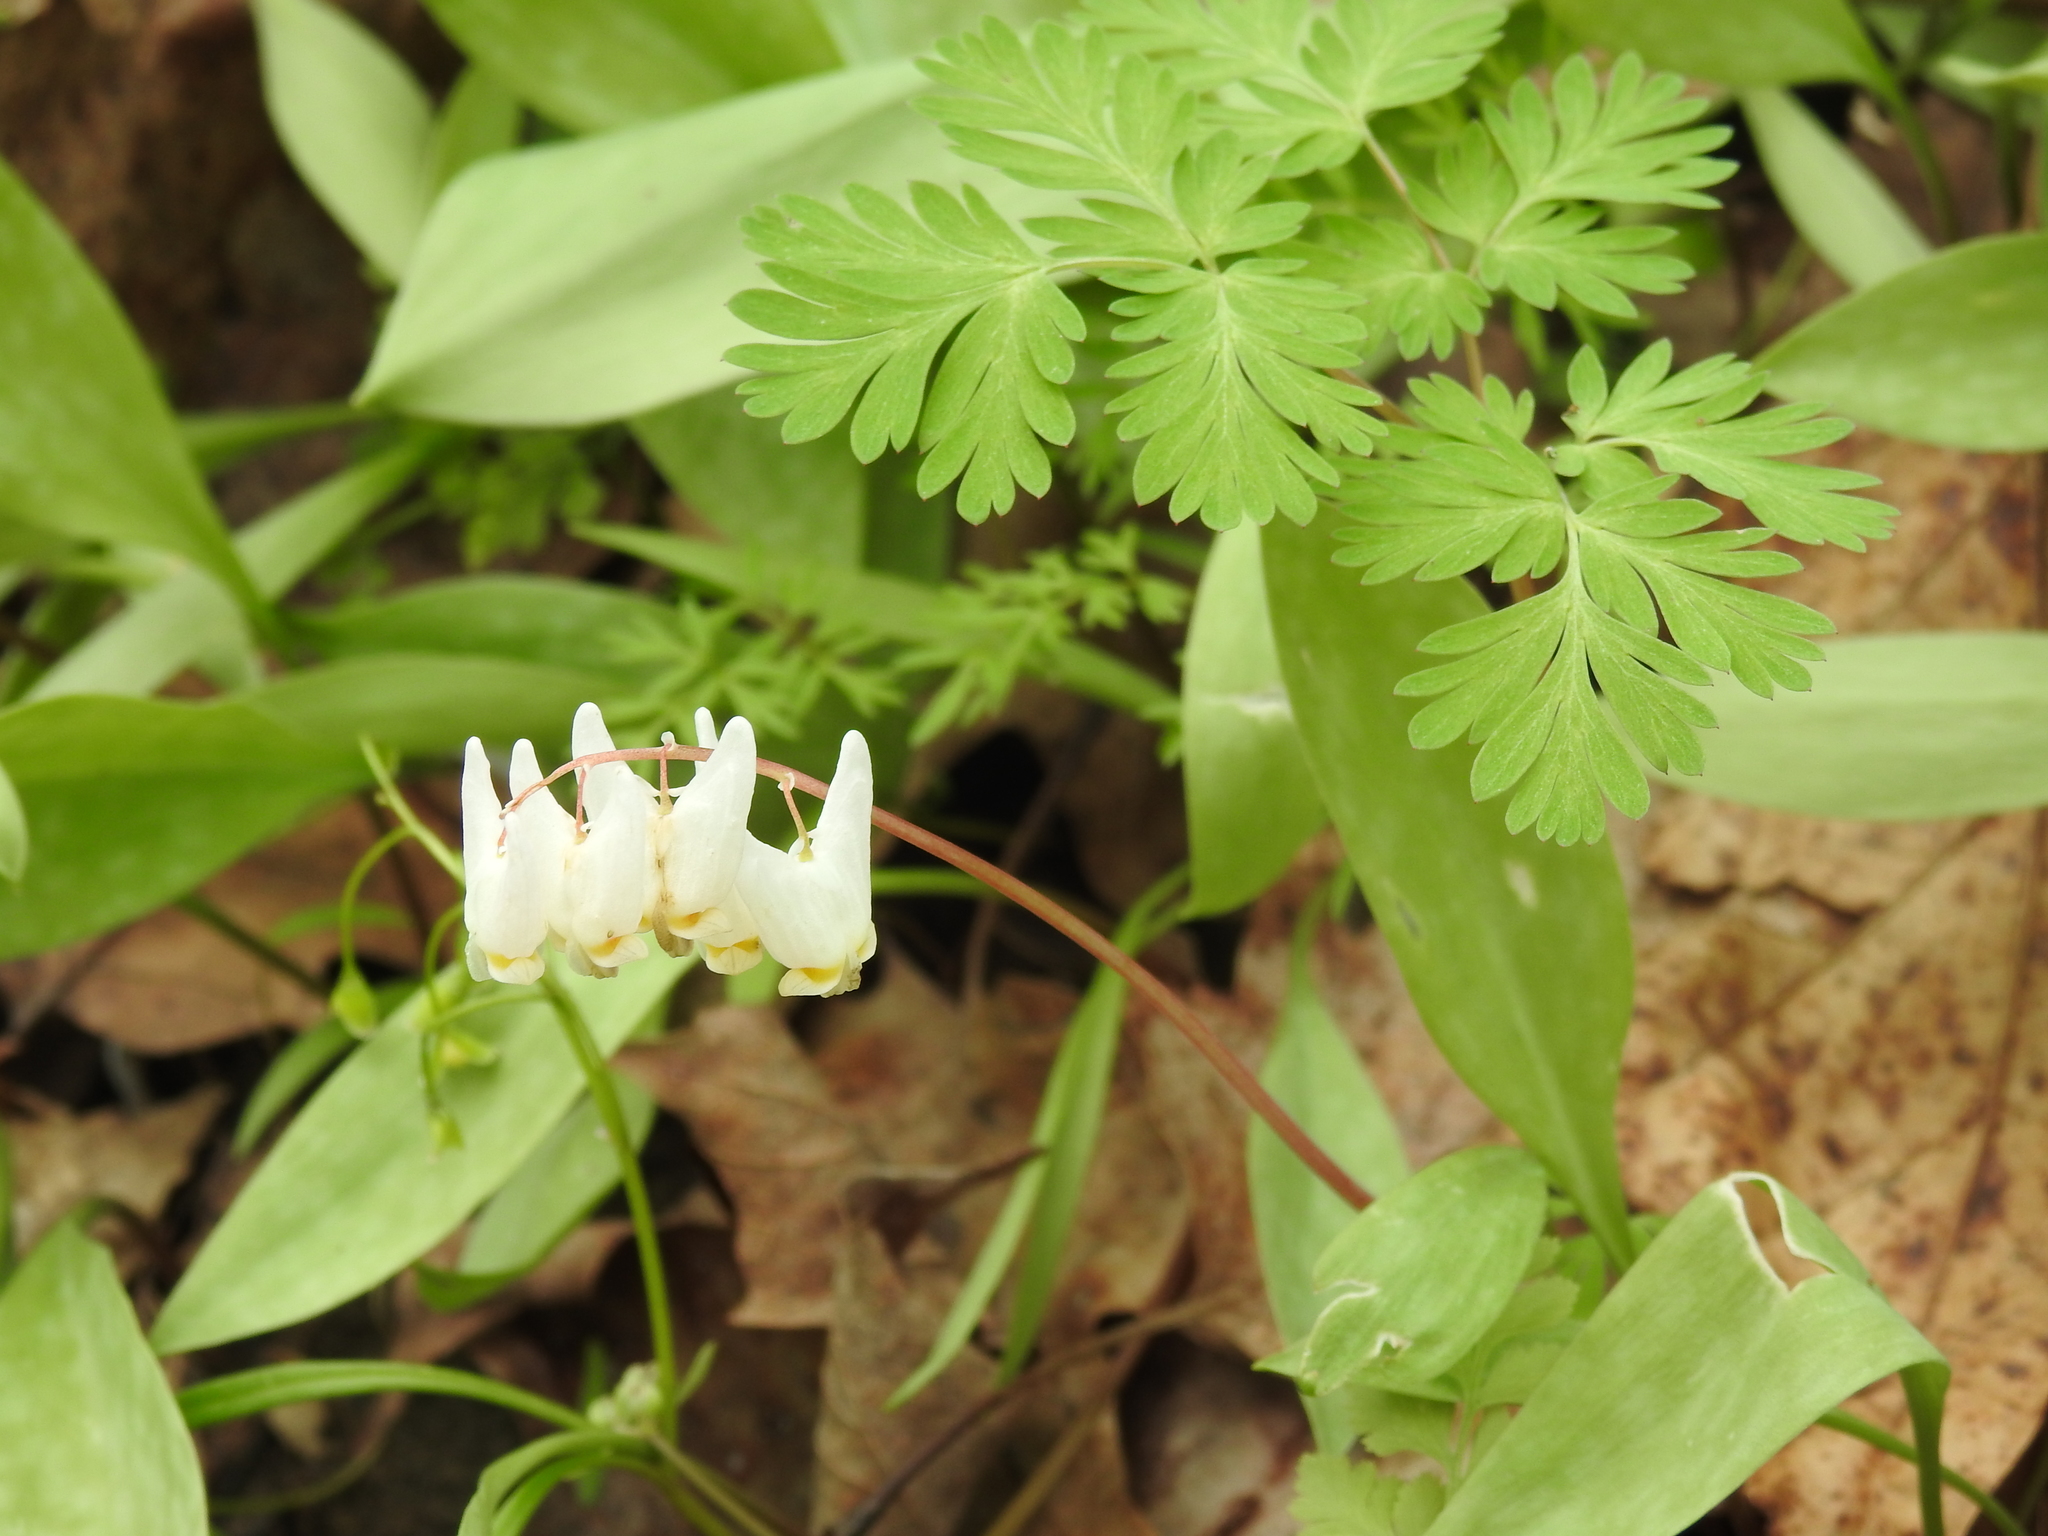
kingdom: Plantae
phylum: Tracheophyta
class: Magnoliopsida
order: Ranunculales
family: Papaveraceae
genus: Dicentra
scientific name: Dicentra cucullaria
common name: Dutchman's breeches
